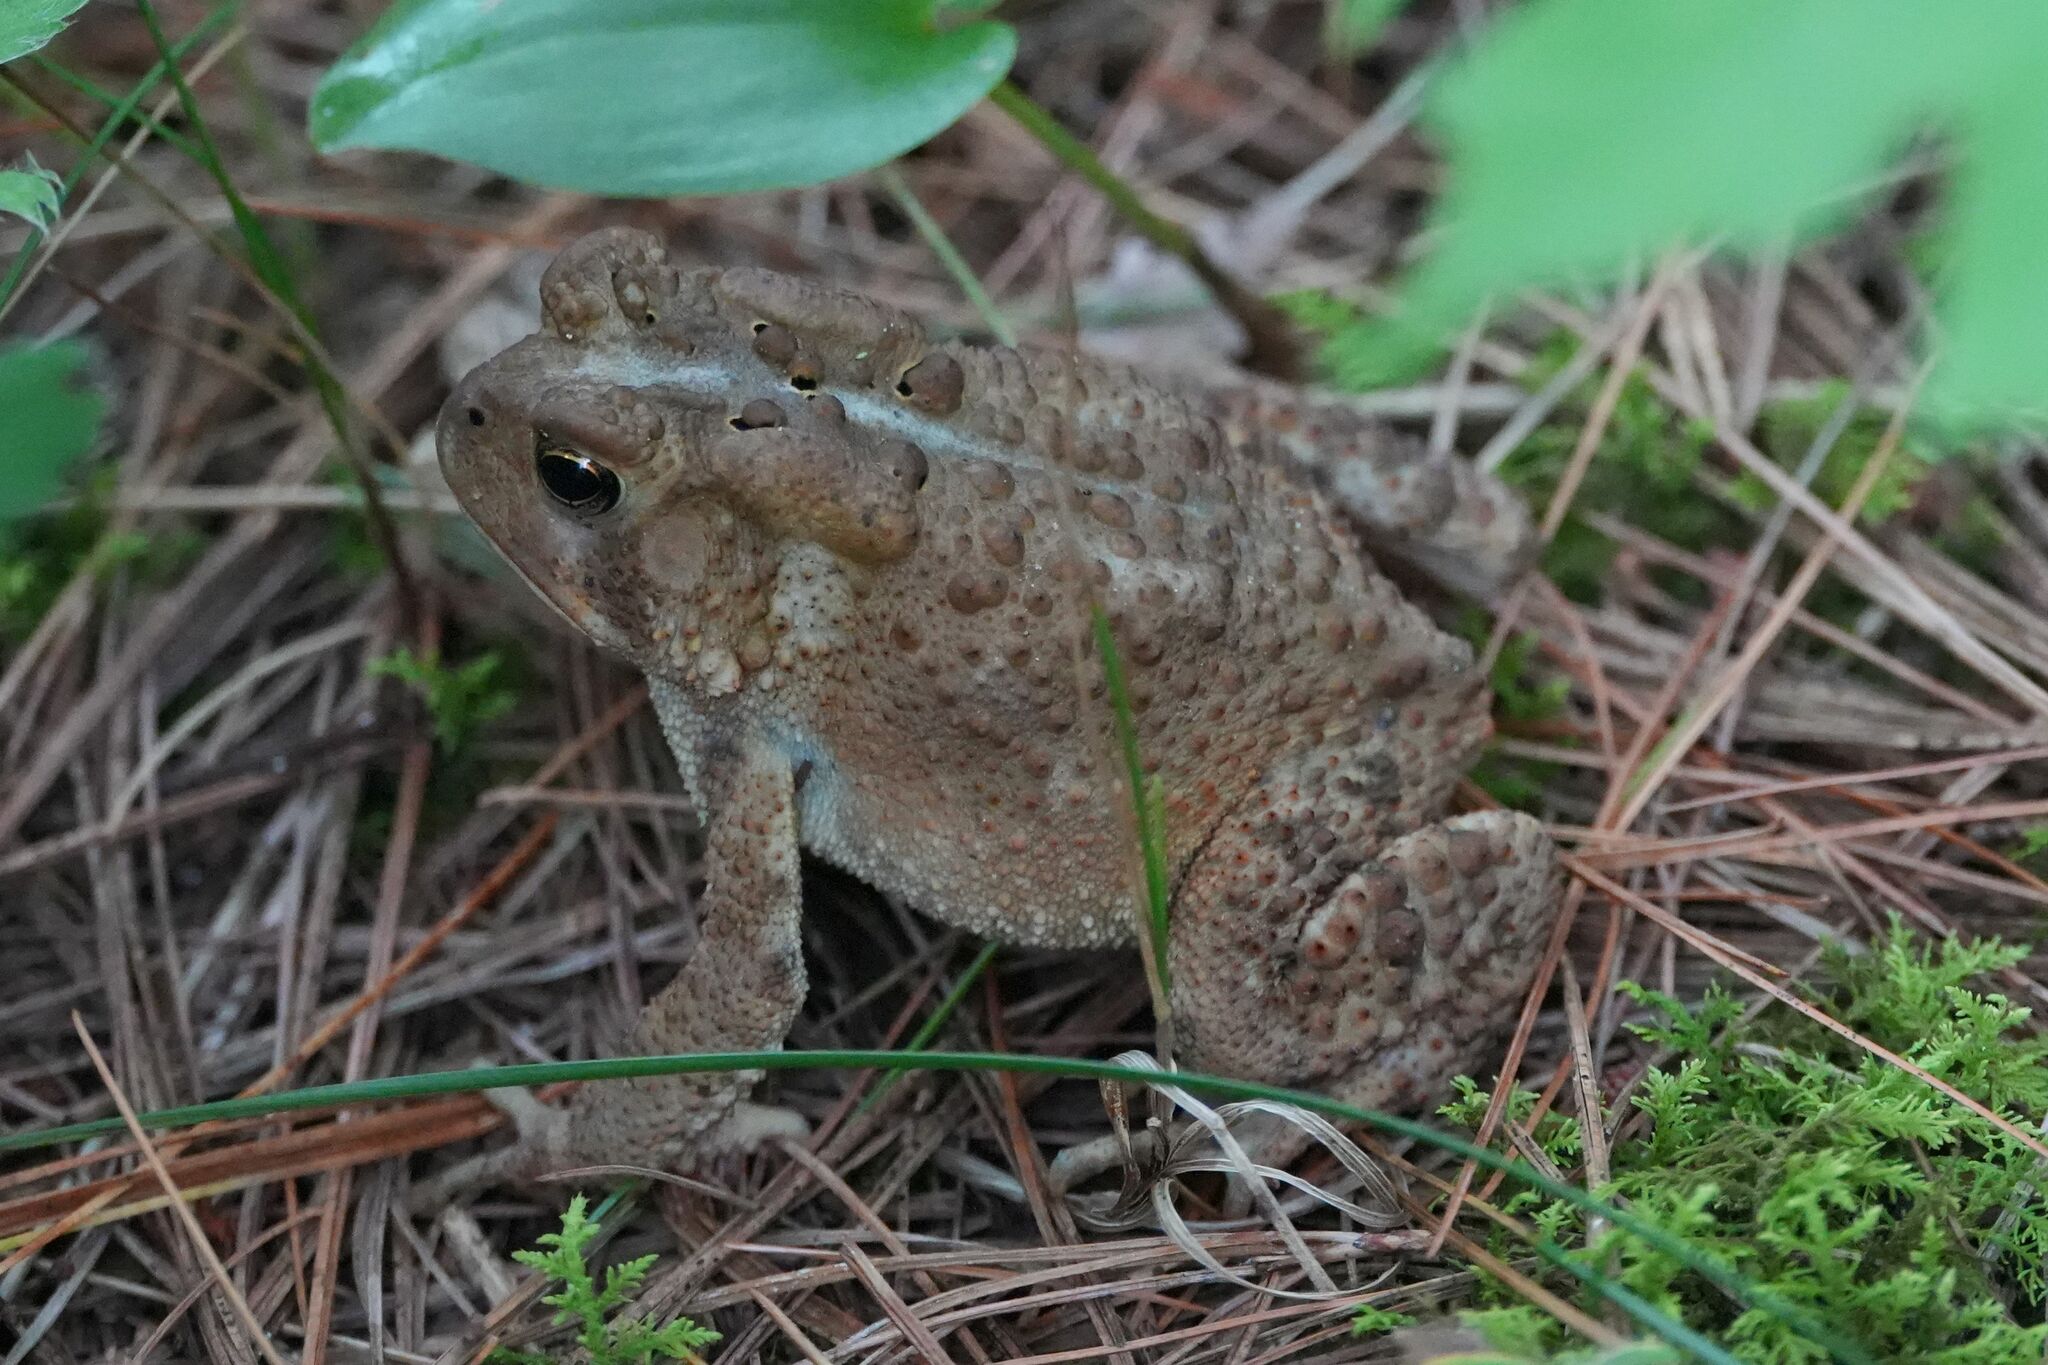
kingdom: Animalia
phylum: Chordata
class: Amphibia
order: Anura
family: Bufonidae
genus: Anaxyrus
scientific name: Anaxyrus americanus
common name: American toad
